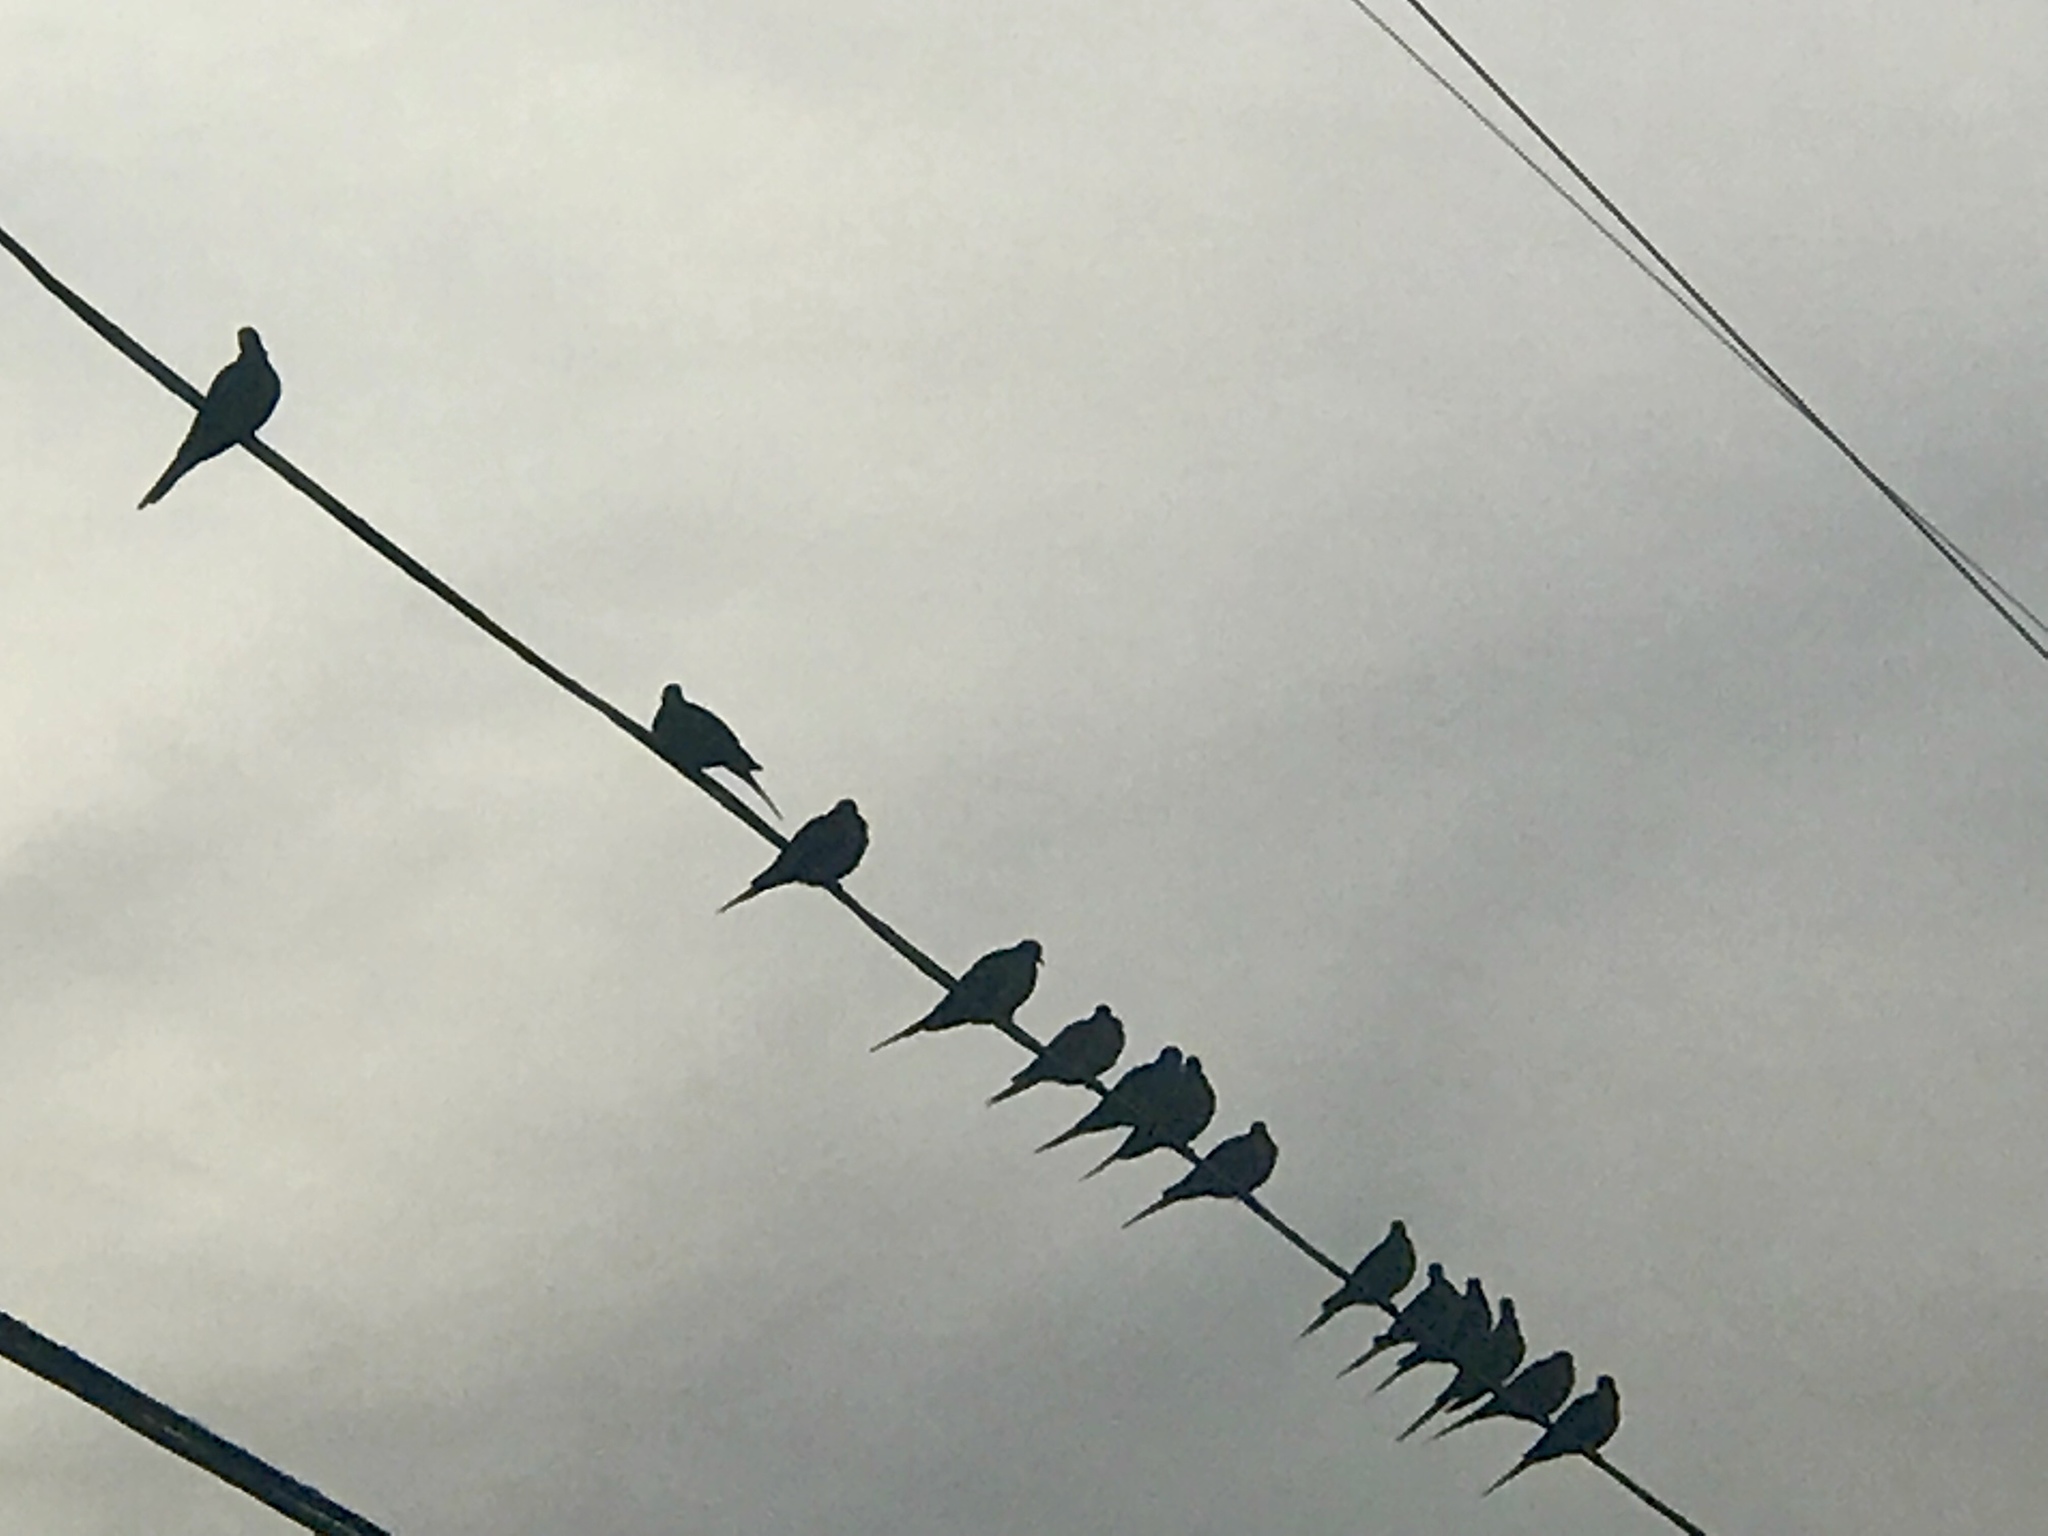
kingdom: Animalia
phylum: Chordata
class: Aves
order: Columbiformes
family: Columbidae
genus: Zenaida
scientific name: Zenaida macroura
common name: Mourning dove
